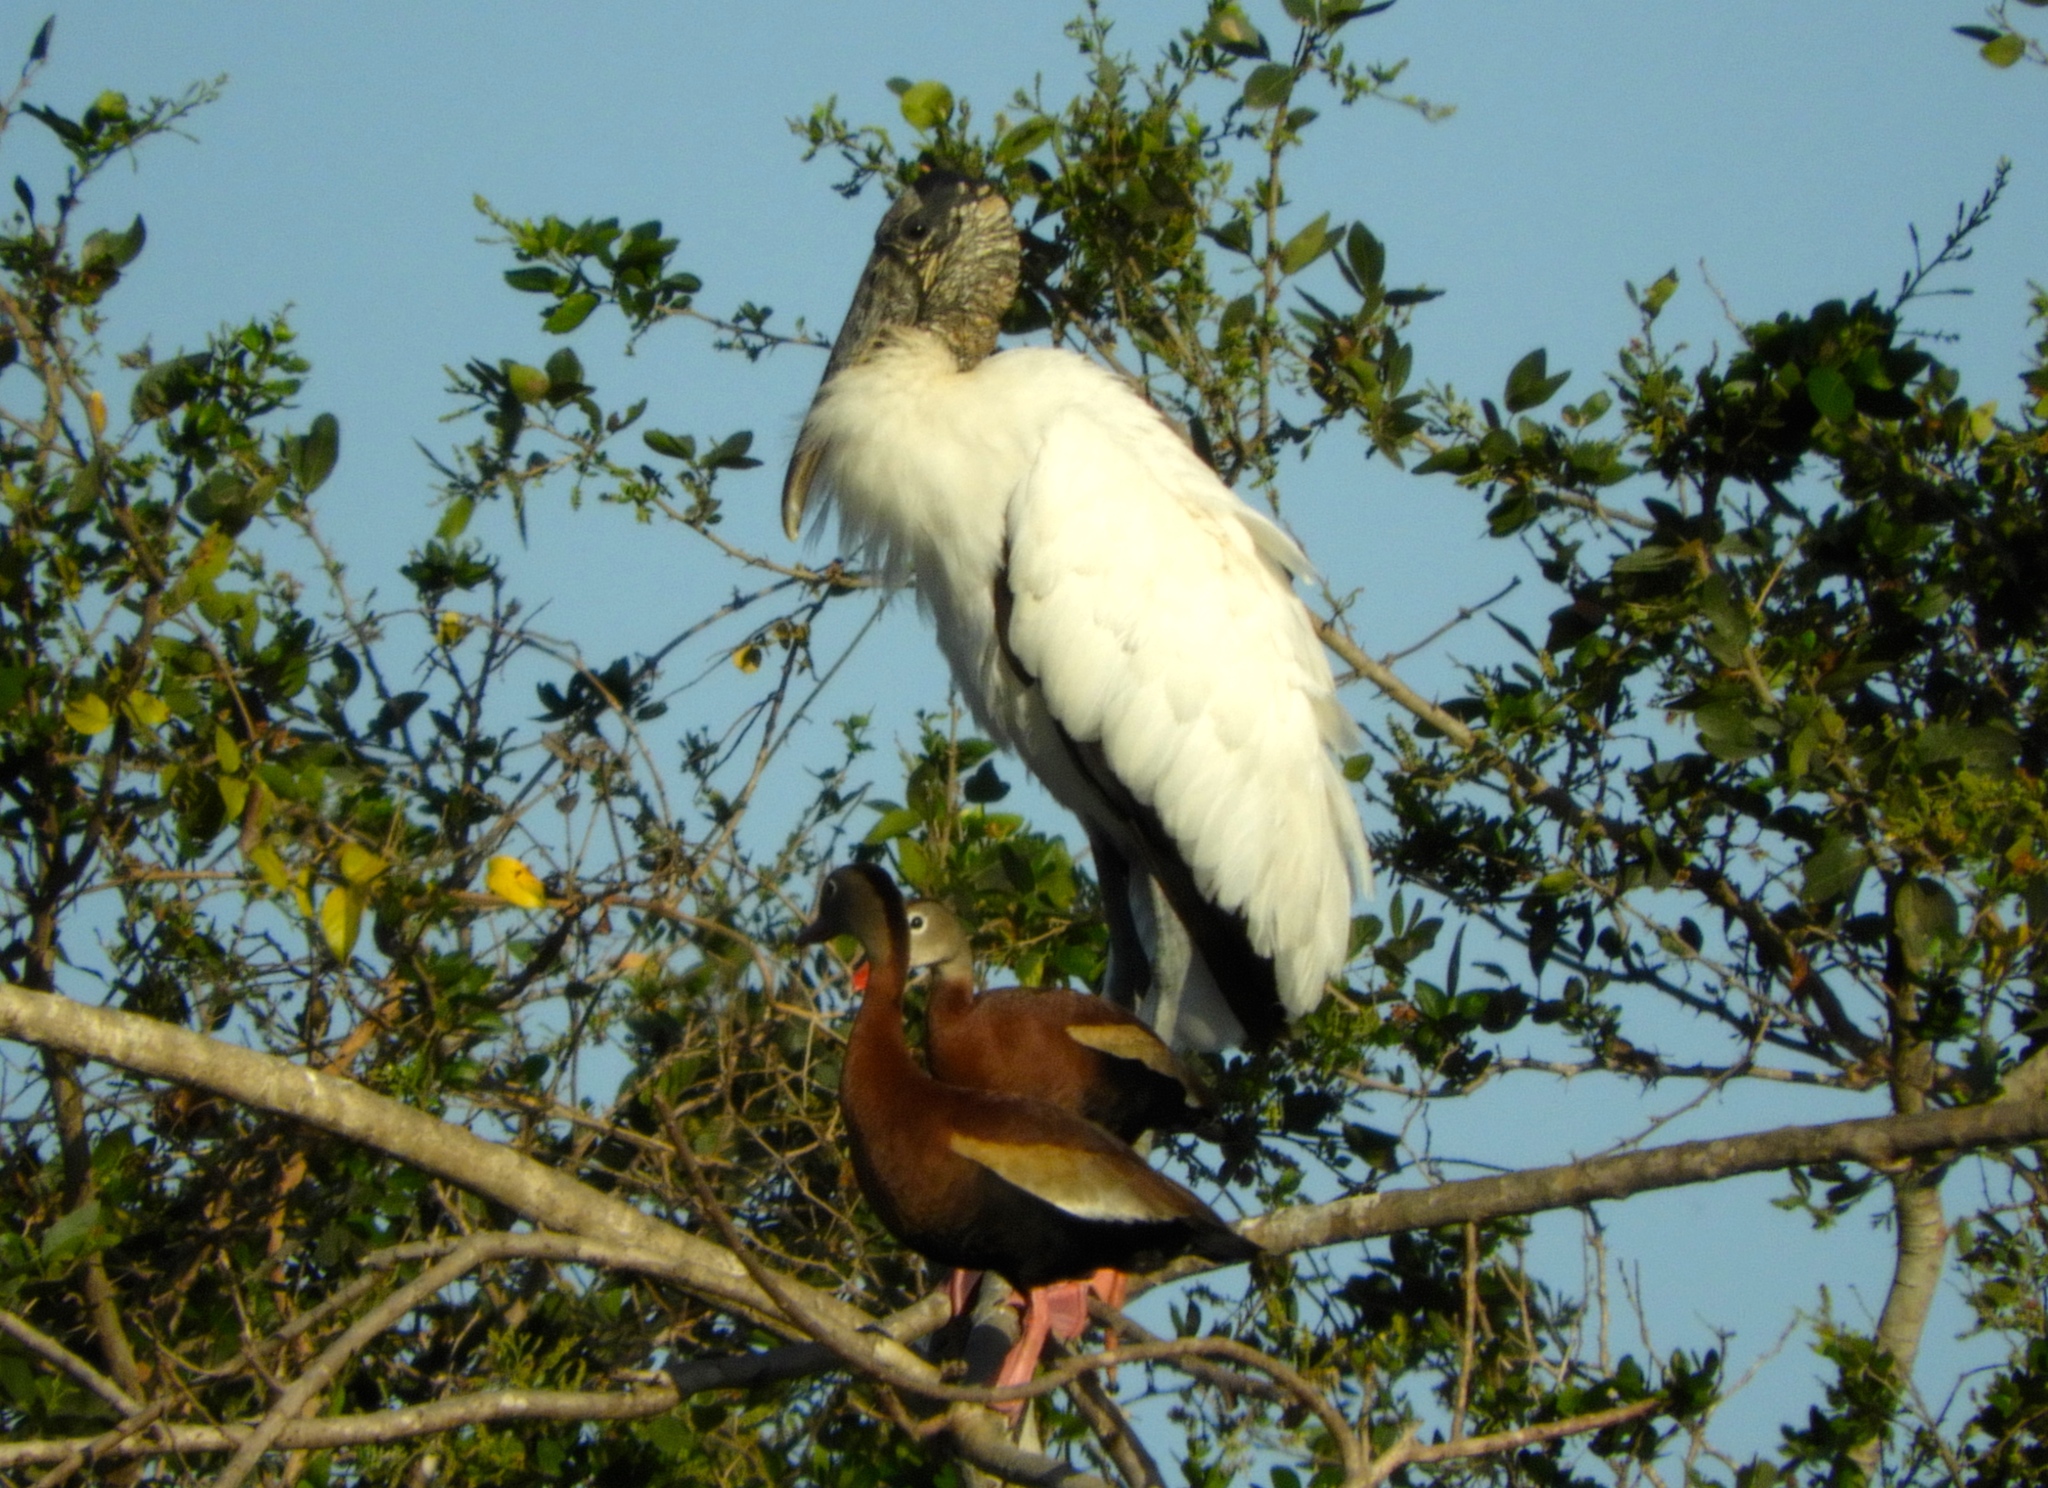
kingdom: Animalia
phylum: Chordata
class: Aves
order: Ciconiiformes
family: Ciconiidae
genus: Mycteria
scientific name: Mycteria americana
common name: Wood stork
